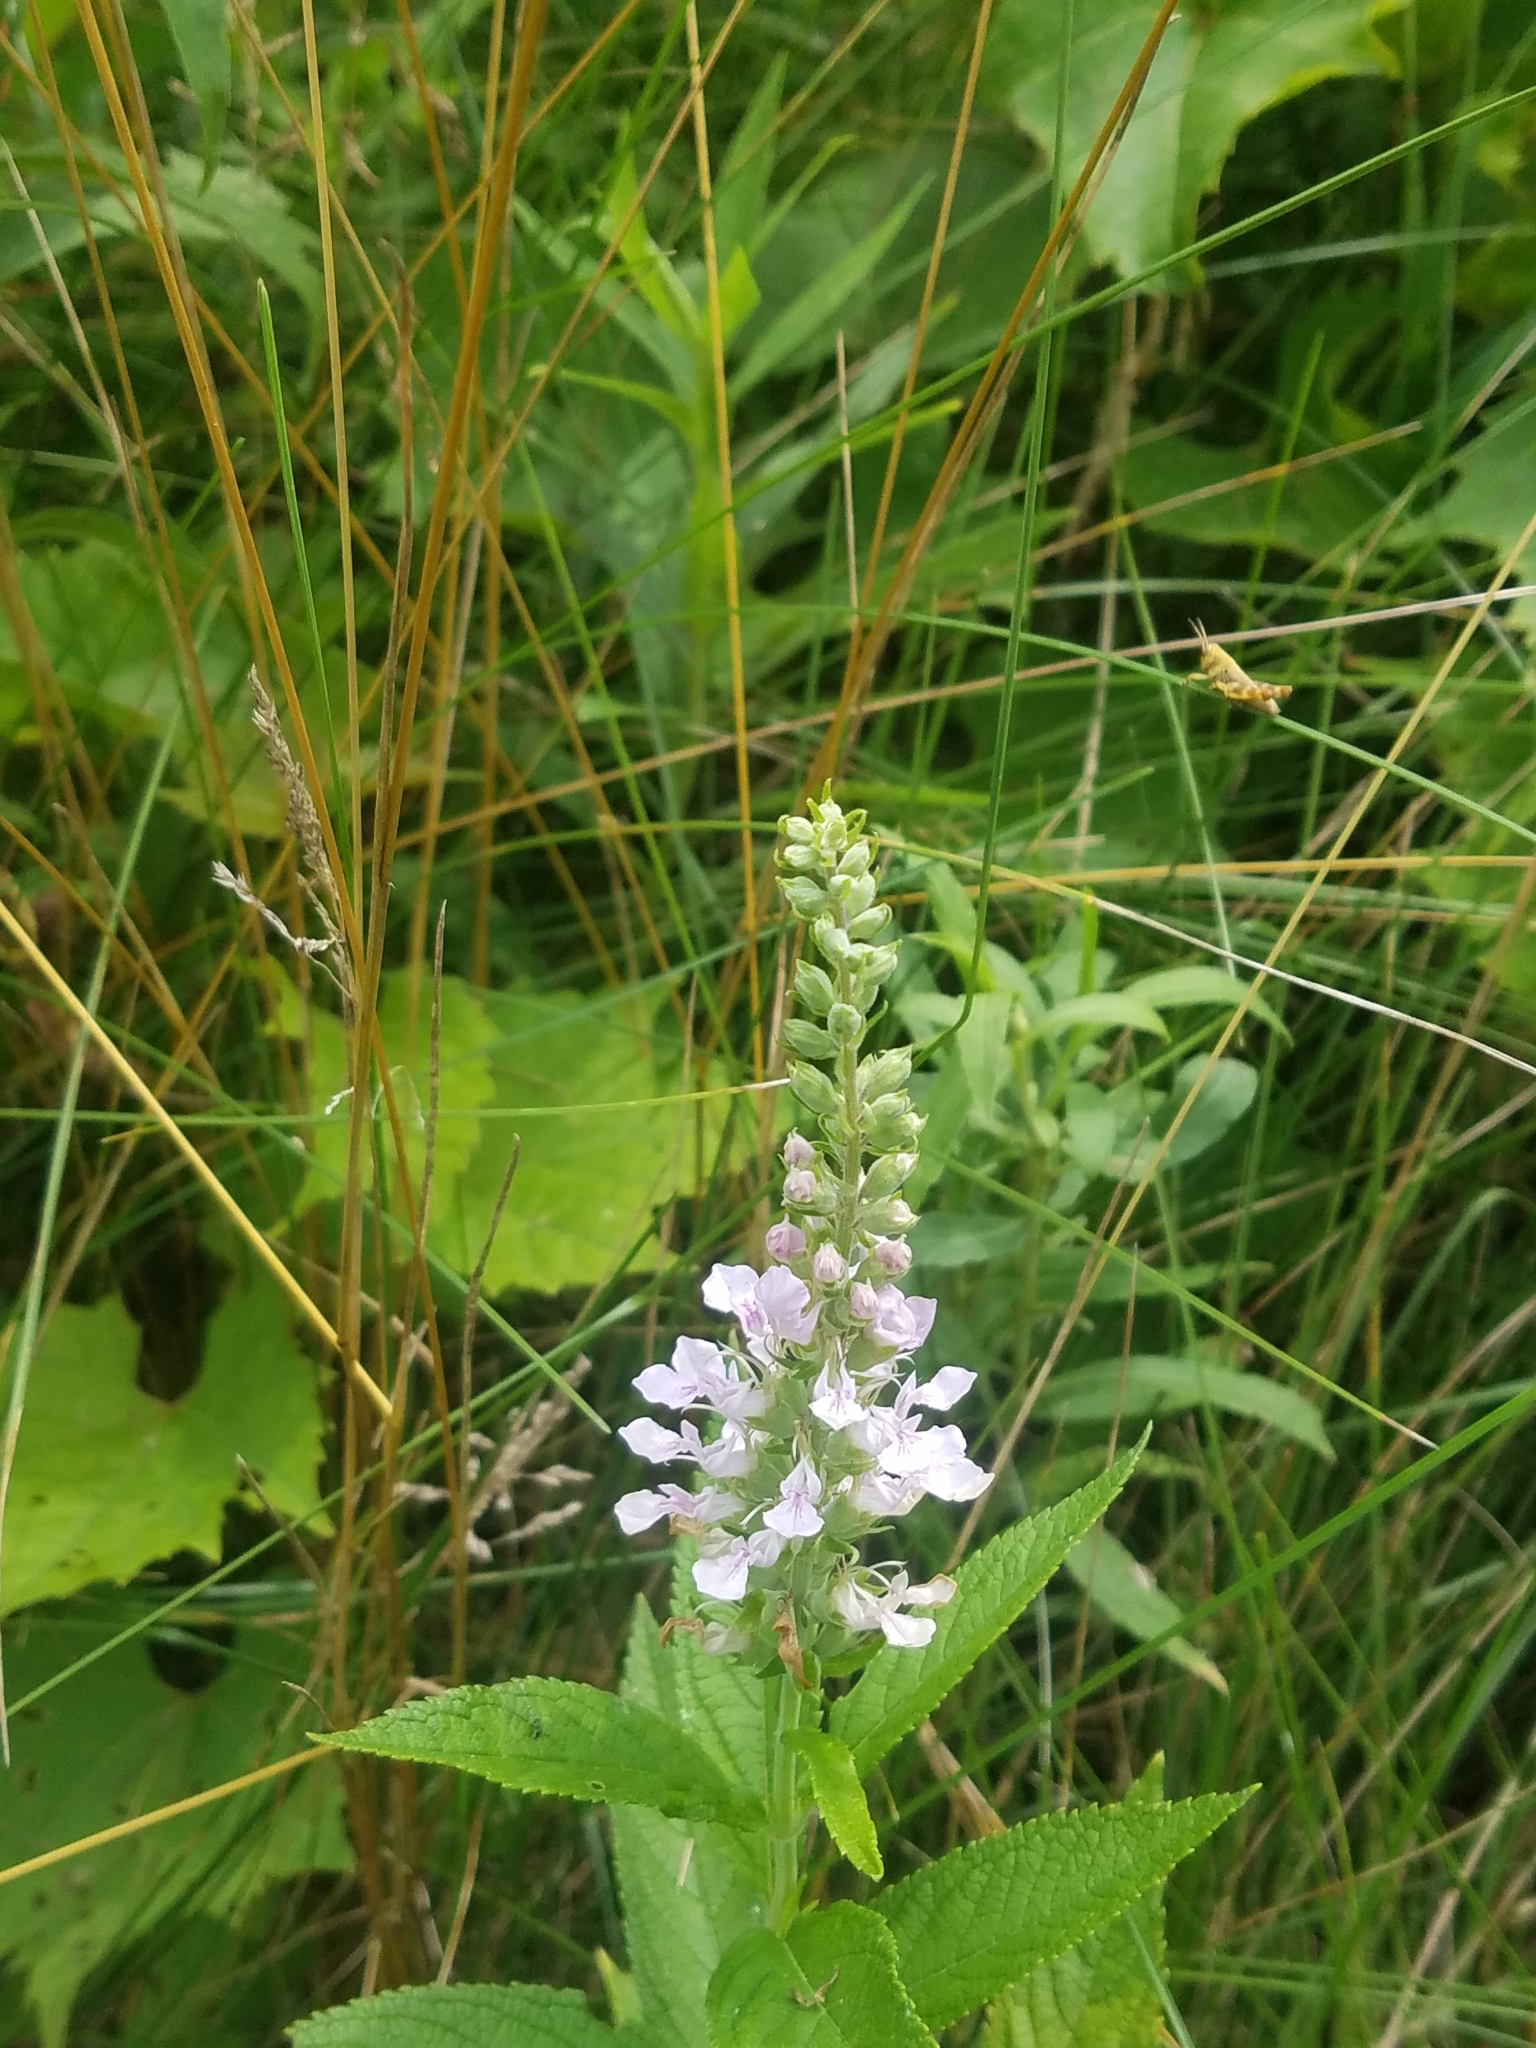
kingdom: Plantae
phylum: Tracheophyta
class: Magnoliopsida
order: Lamiales
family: Lamiaceae
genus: Teucrium
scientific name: Teucrium canadense
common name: American germander
